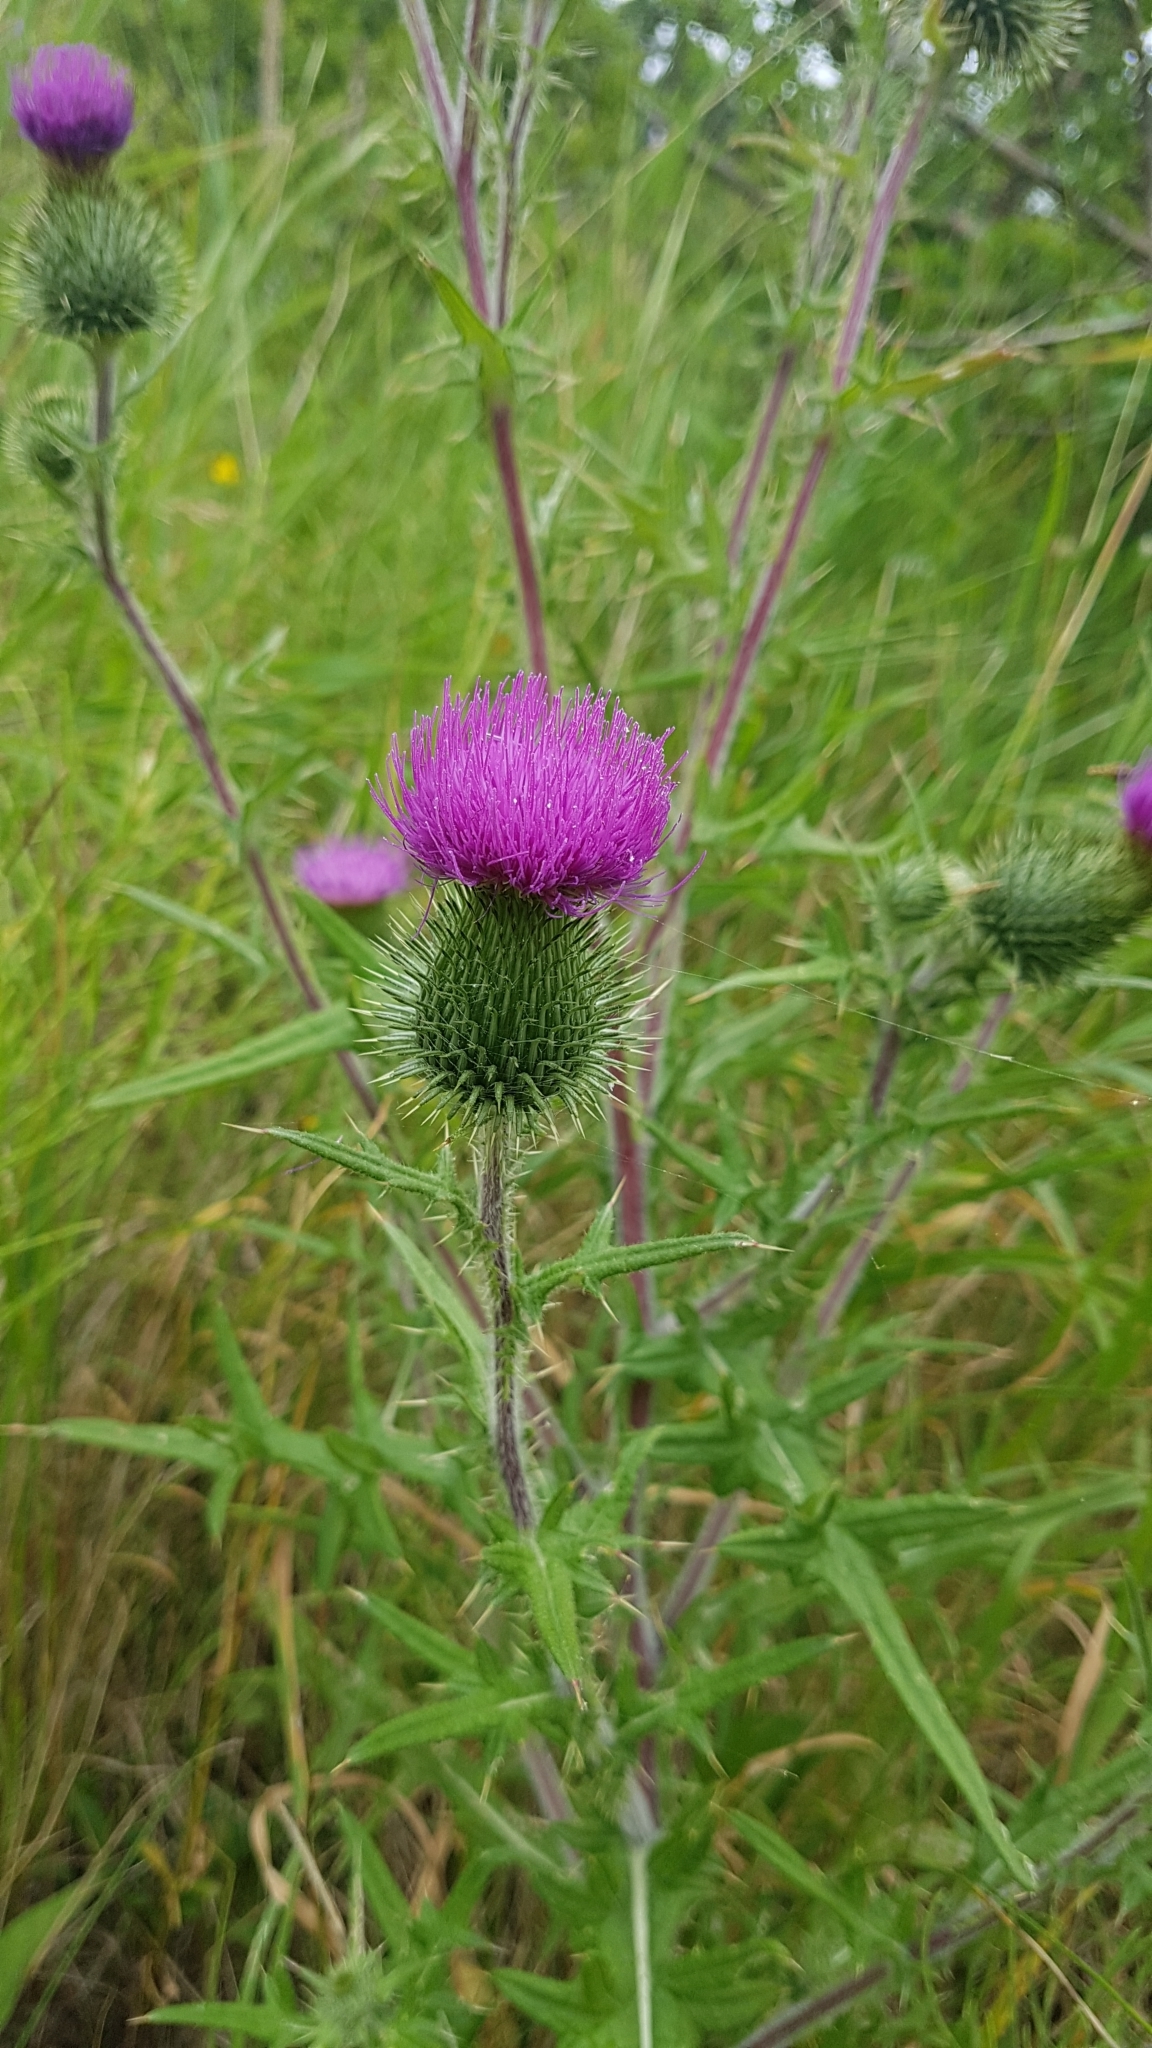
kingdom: Plantae
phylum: Tracheophyta
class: Magnoliopsida
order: Asterales
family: Asteraceae
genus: Cirsium
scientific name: Cirsium vulgare
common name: Bull thistle
